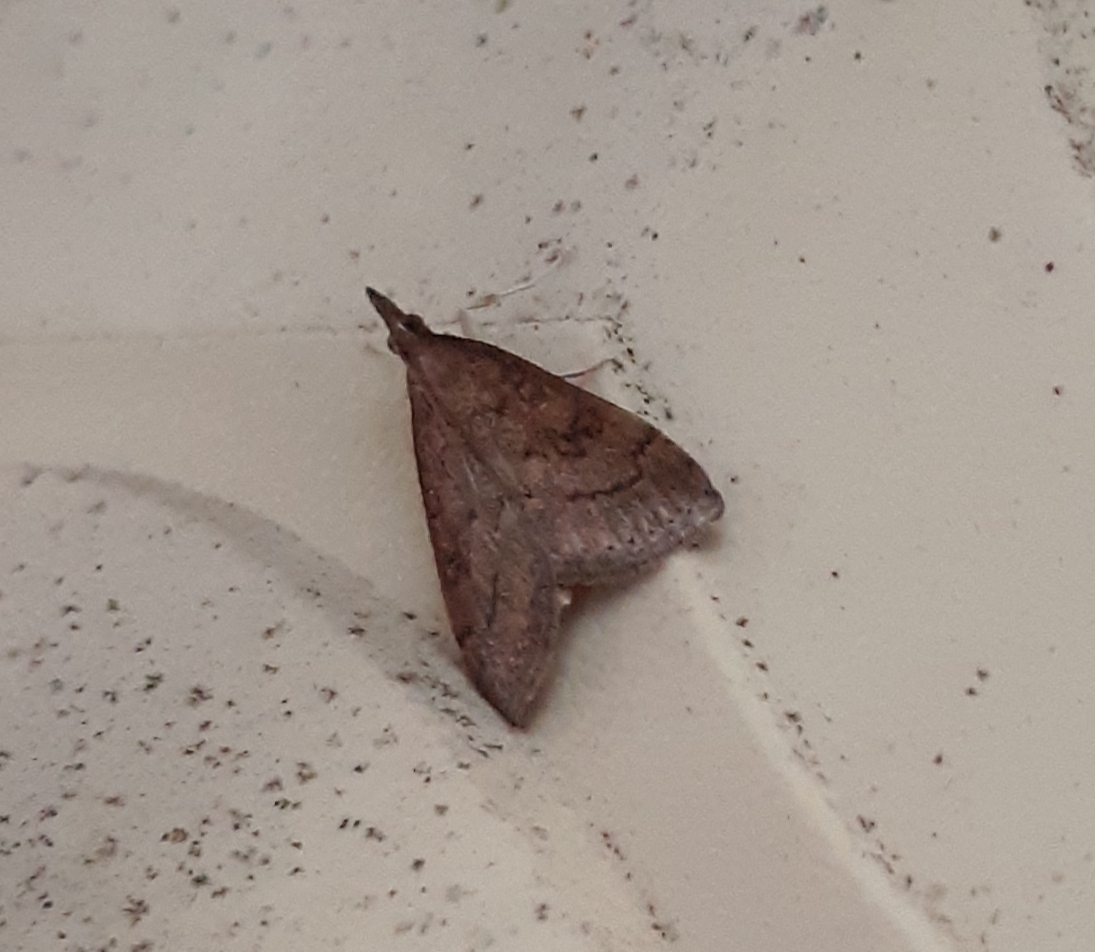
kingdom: Animalia
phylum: Arthropoda
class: Insecta
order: Lepidoptera
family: Crambidae
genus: Udea
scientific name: Udea rubigalis
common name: Celery leaftier moth
